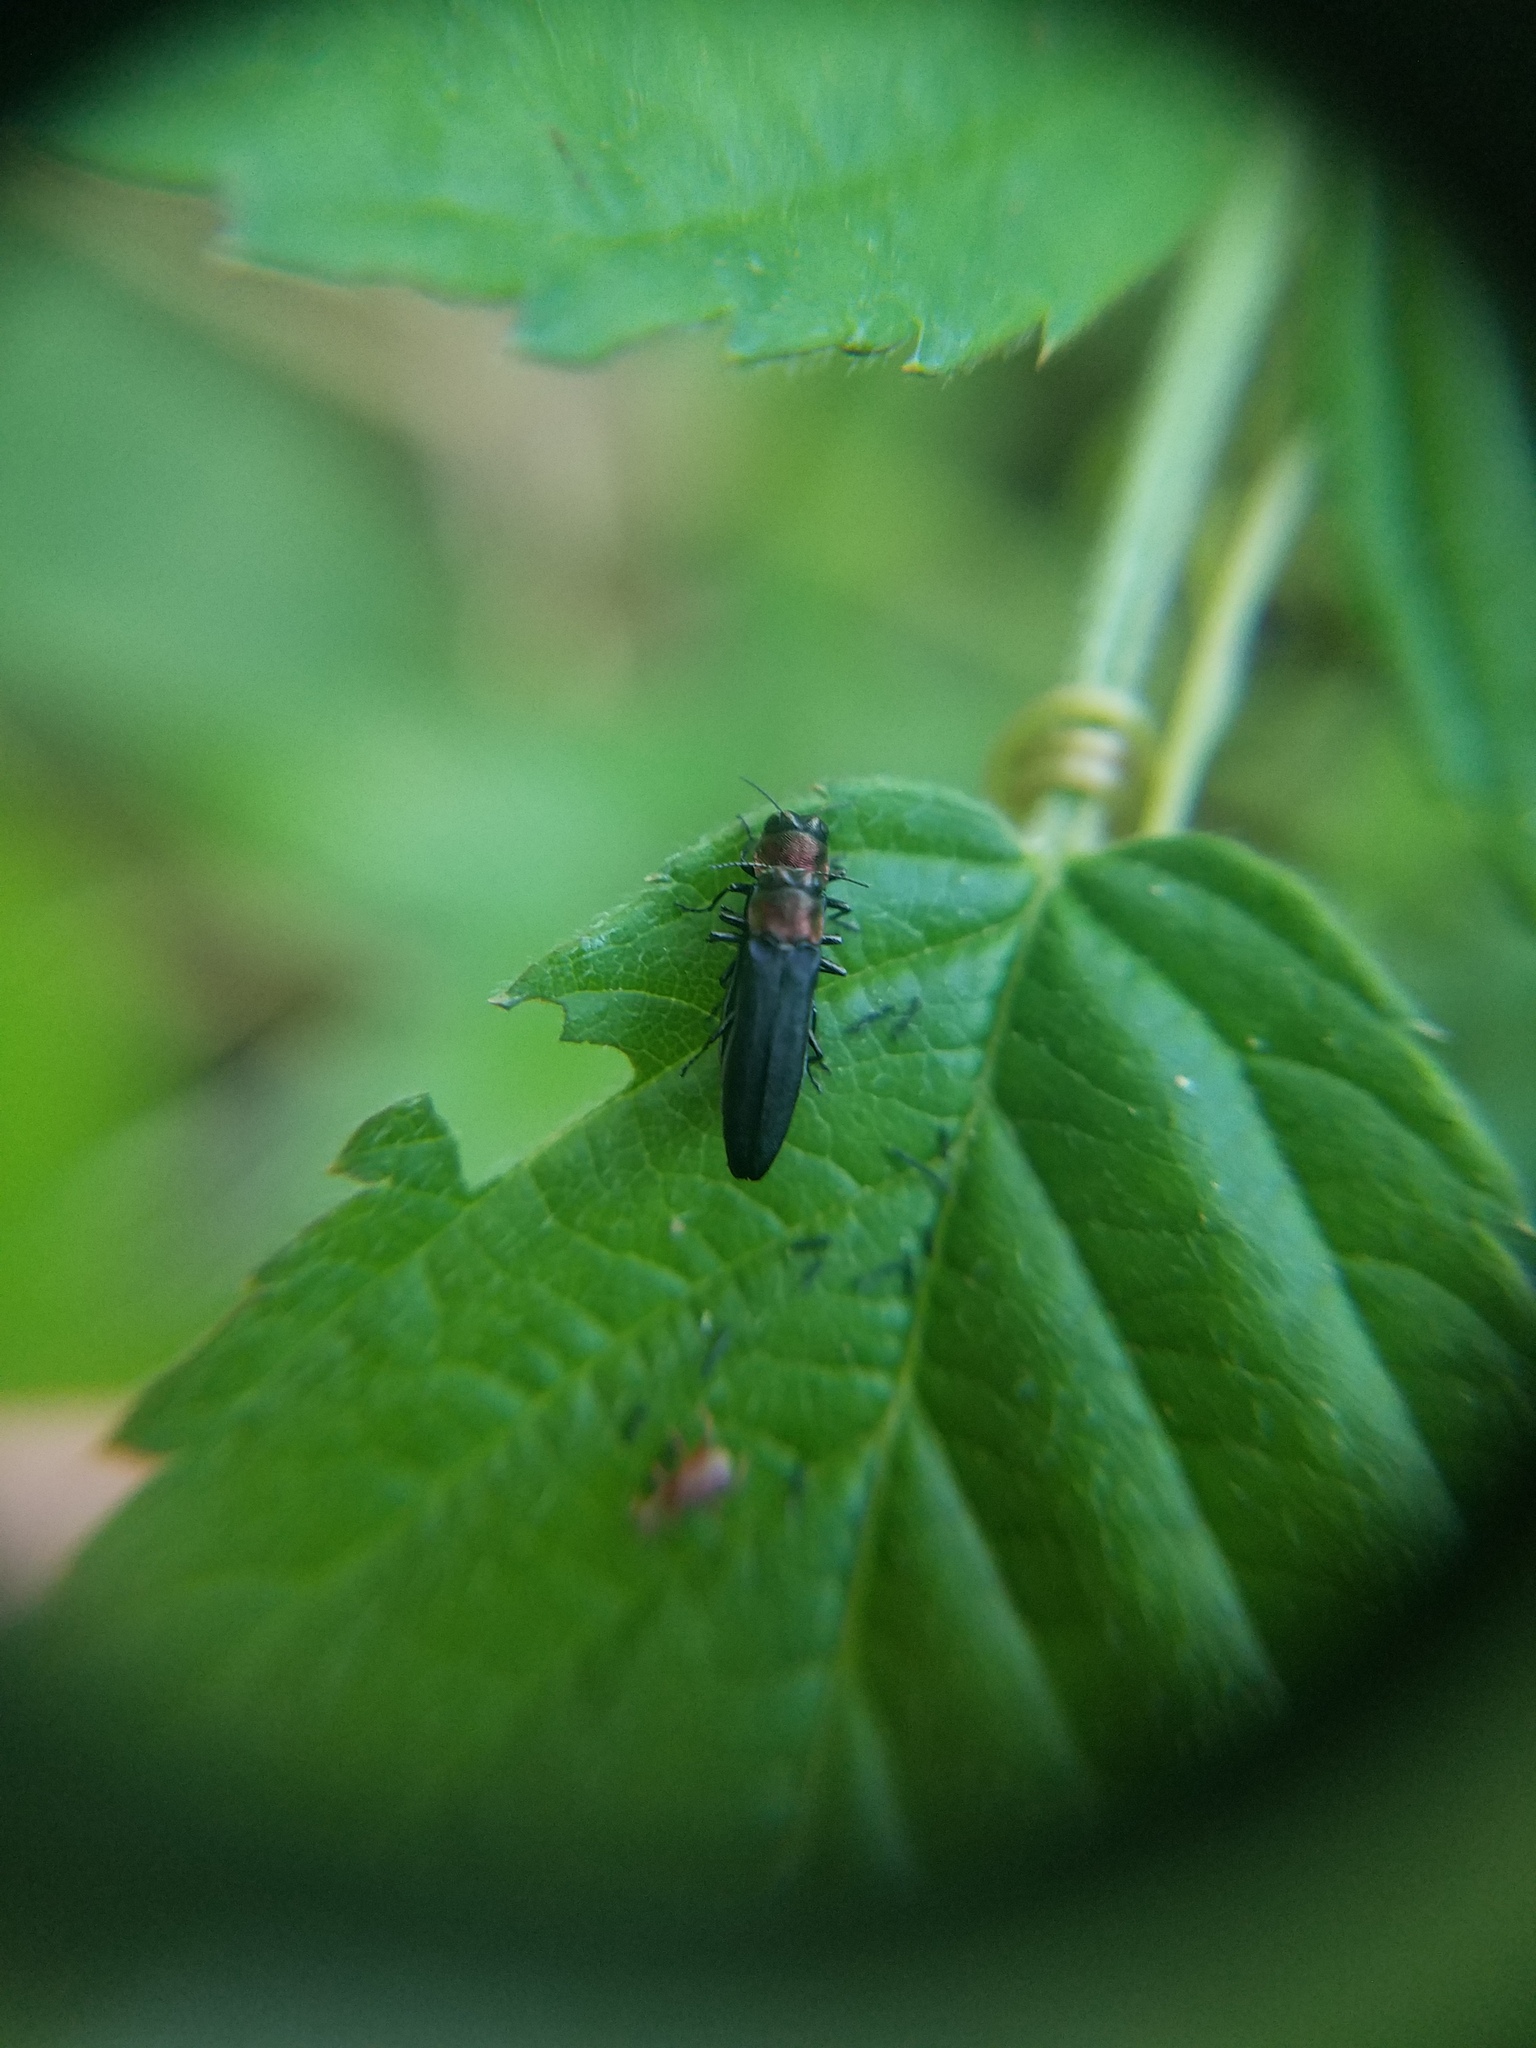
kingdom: Animalia
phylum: Arthropoda
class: Insecta
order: Coleoptera
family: Buprestidae
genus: Agrilus
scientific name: Agrilus ruficollis
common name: Red-necked cane borer beetle
